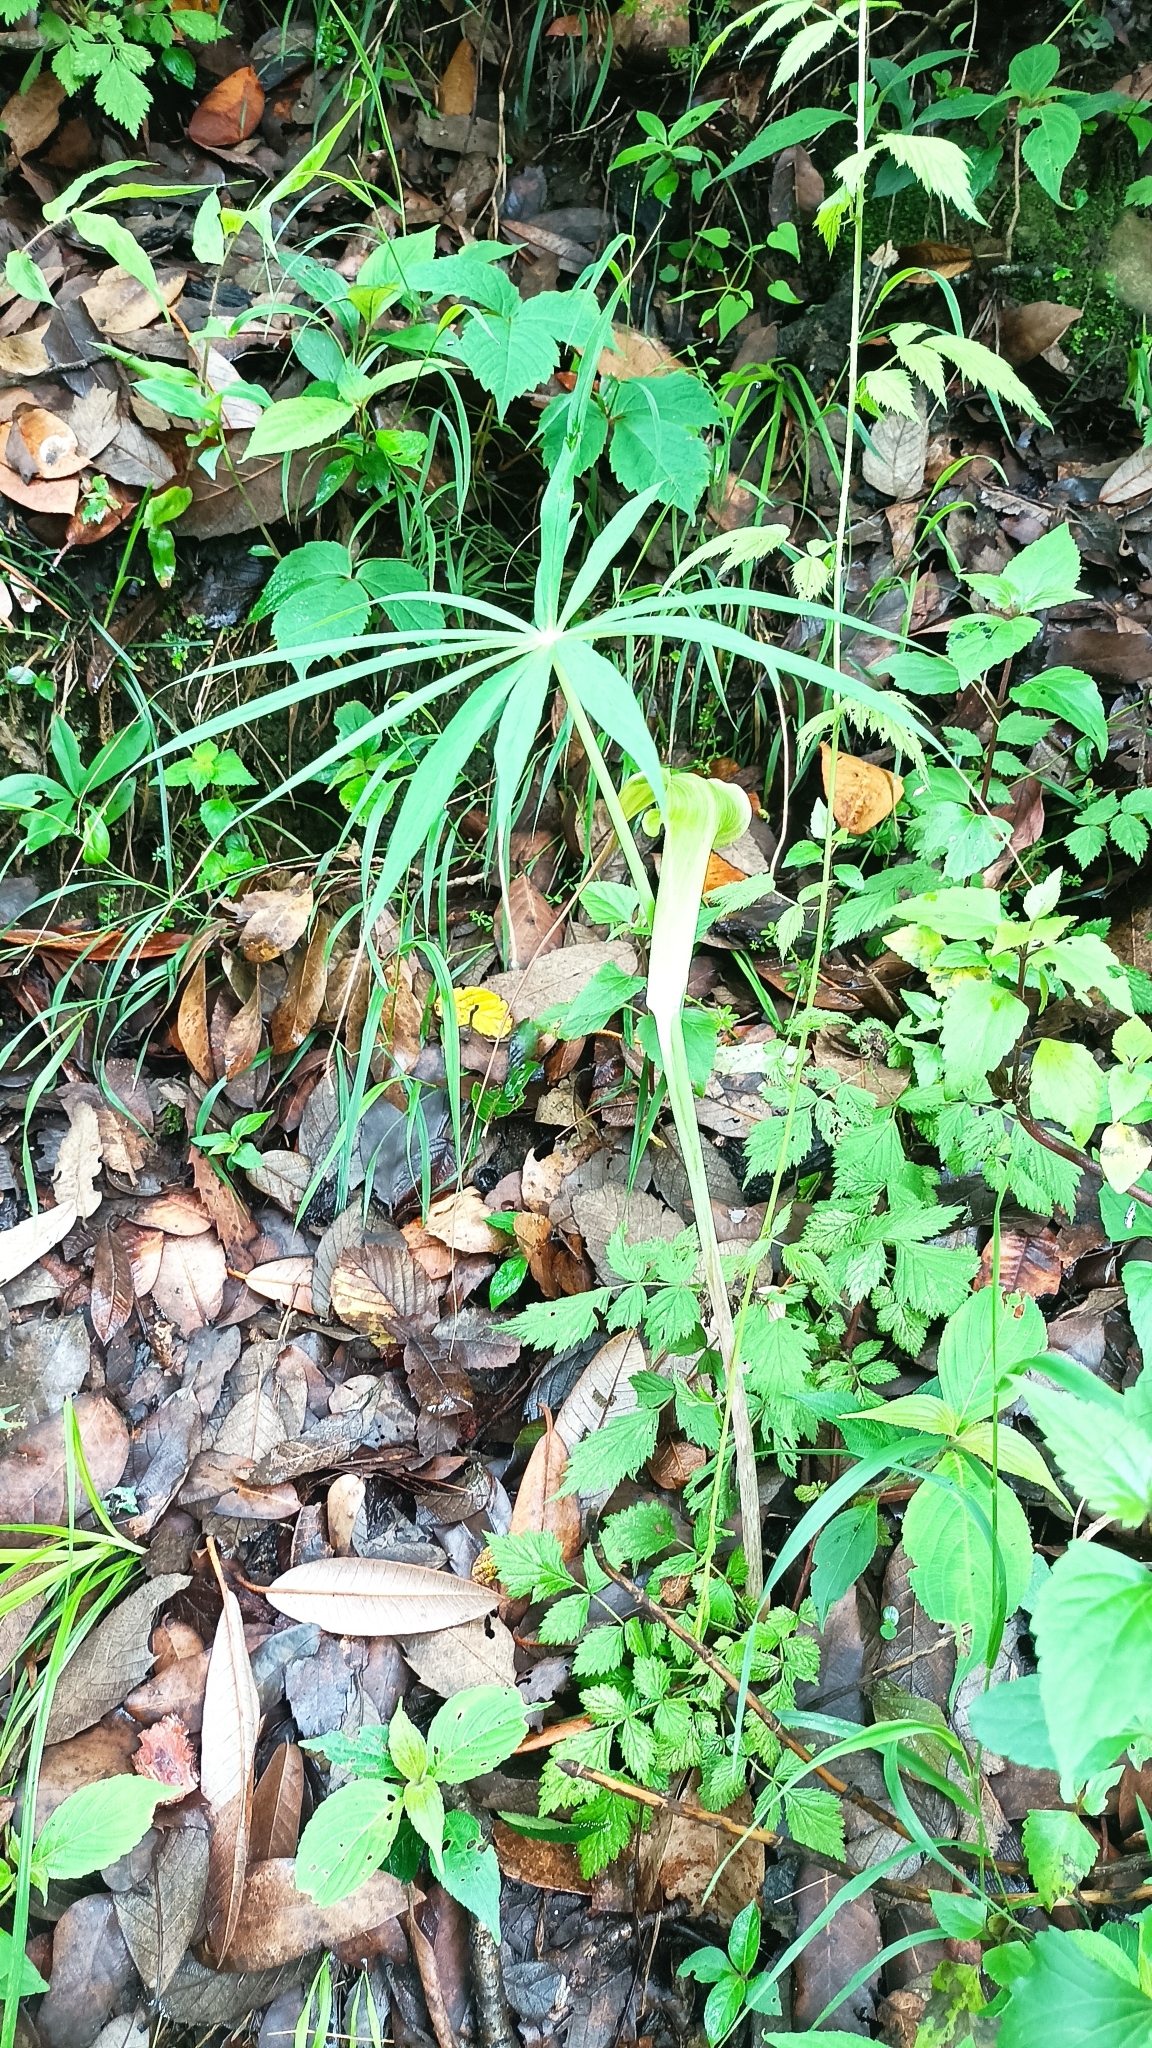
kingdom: Plantae
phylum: Tracheophyta
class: Liliopsida
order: Alismatales
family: Araceae
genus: Arisaema
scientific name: Arisaema consanguineum
